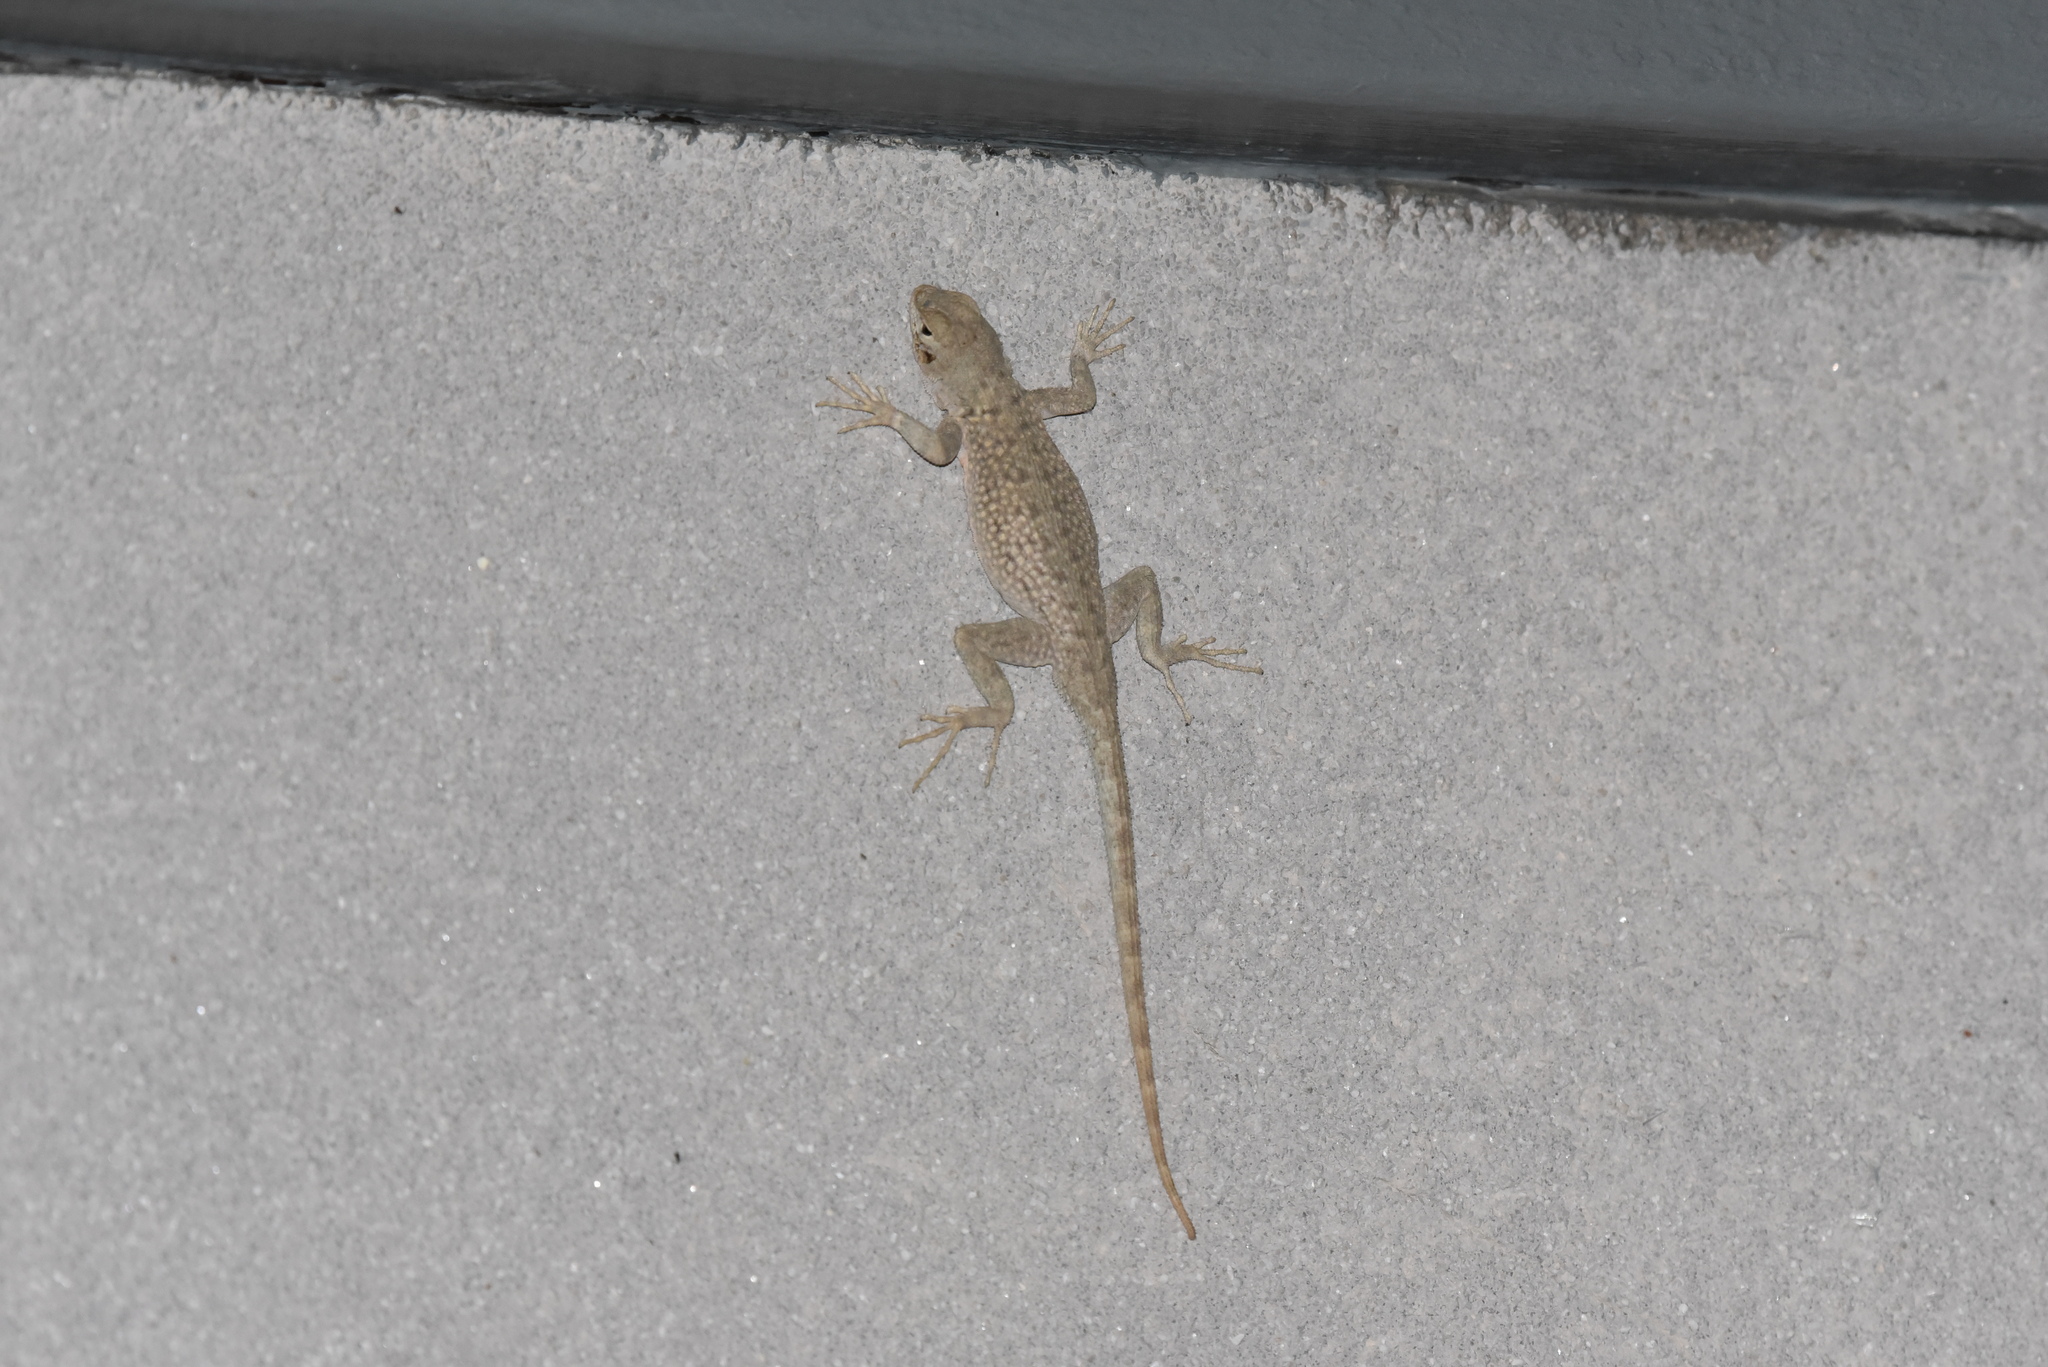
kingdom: Animalia
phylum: Chordata
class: Squamata
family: Phrynosomatidae
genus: Sceloporus
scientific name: Sceloporus merriami
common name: Canyon lizard
